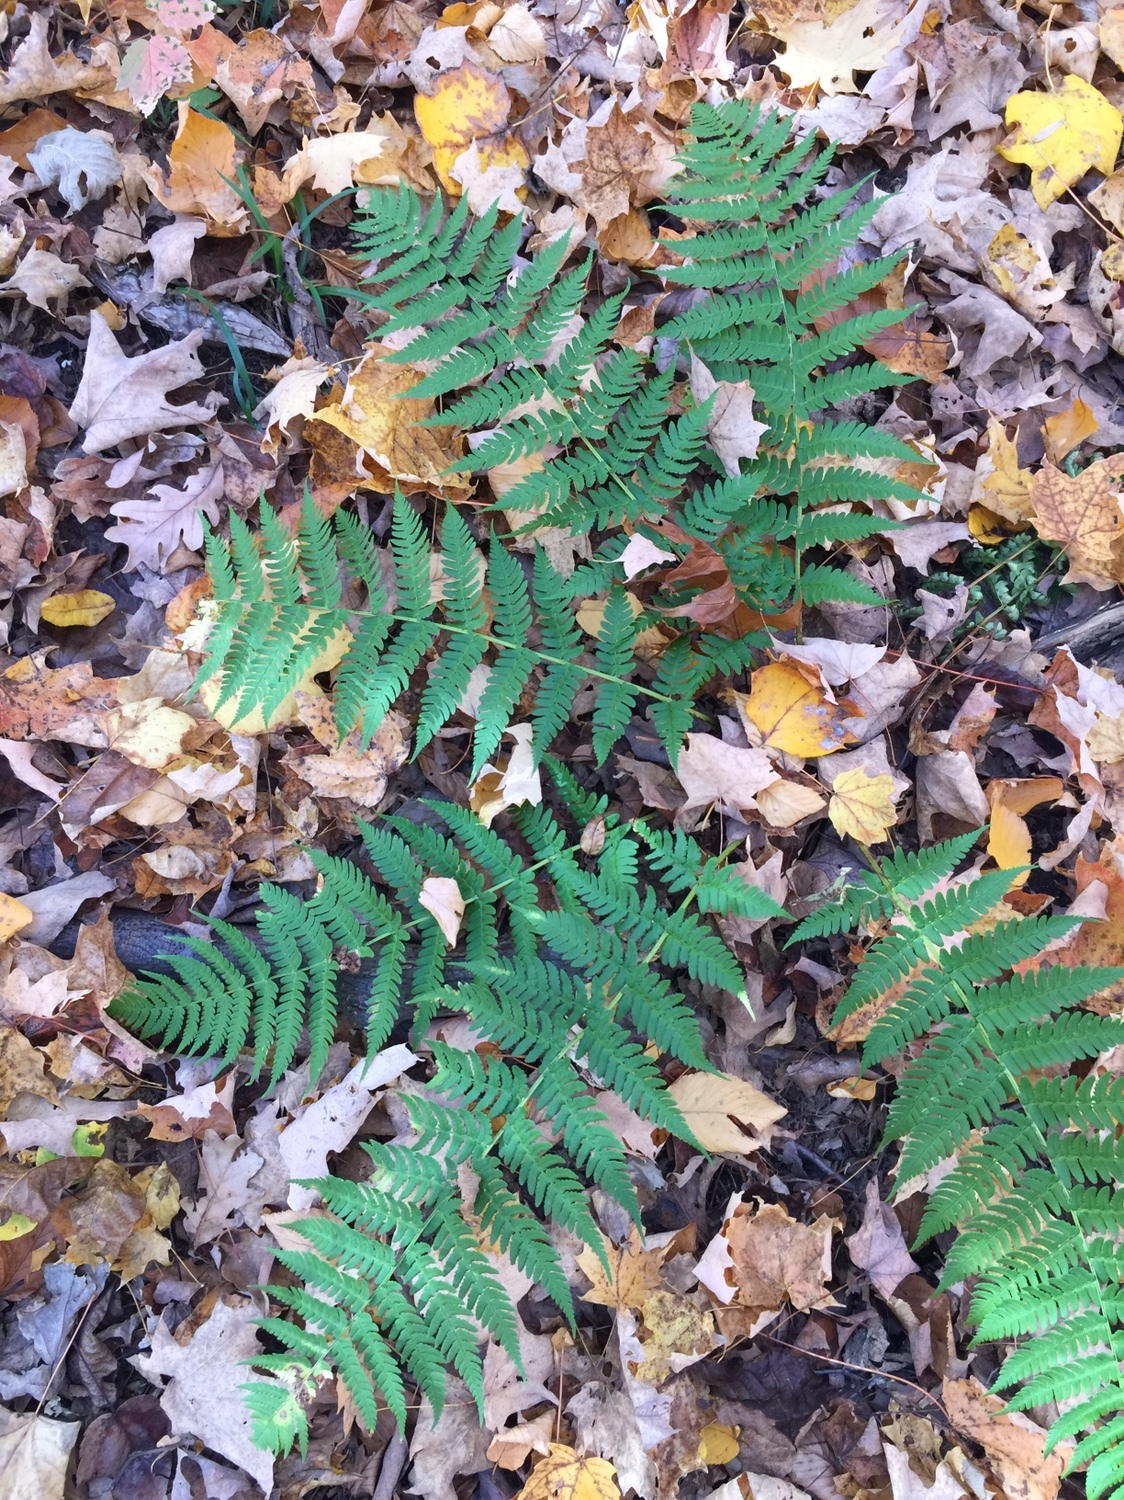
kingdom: Plantae
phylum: Tracheophyta
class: Polypodiopsida
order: Polypodiales
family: Dryopteridaceae
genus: Dryopteris
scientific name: Dryopteris marginalis
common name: Marginal wood fern
